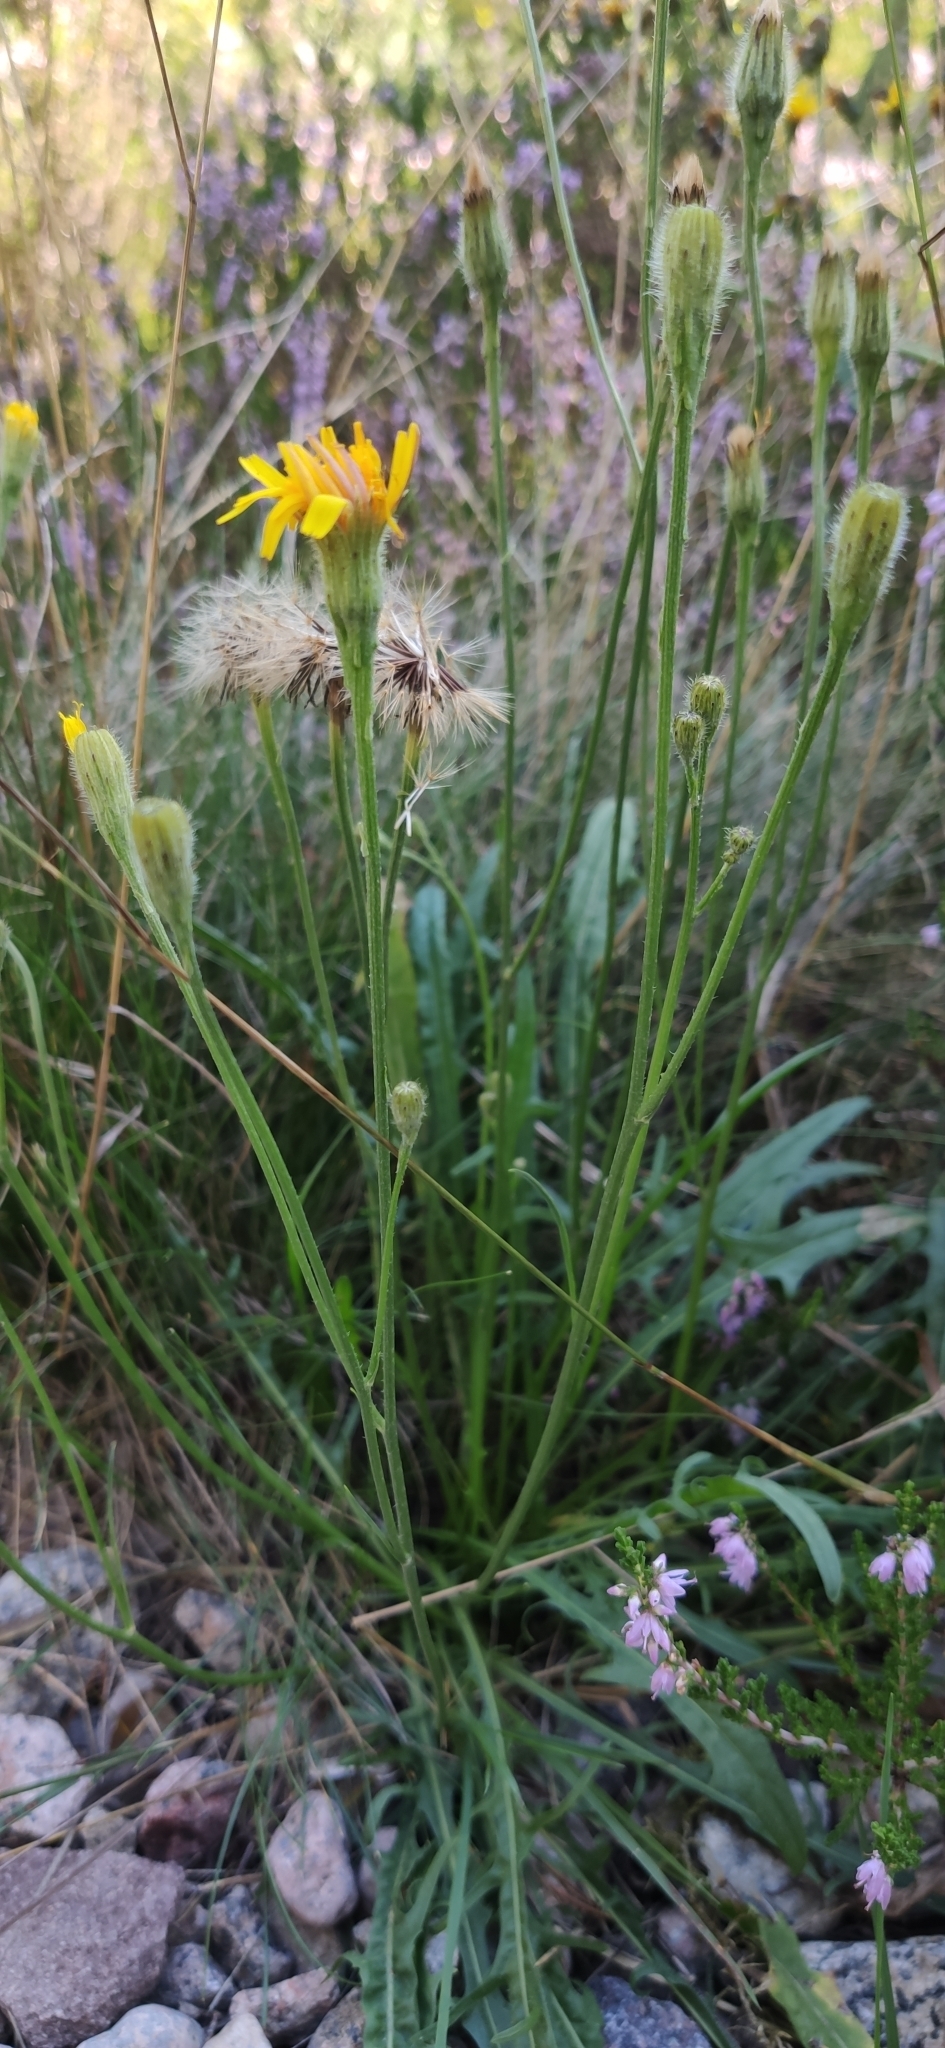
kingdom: Plantae
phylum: Tracheophyta
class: Magnoliopsida
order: Asterales
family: Asteraceae
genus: Scorzoneroides
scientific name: Scorzoneroides autumnalis
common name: Autumn hawkbit
